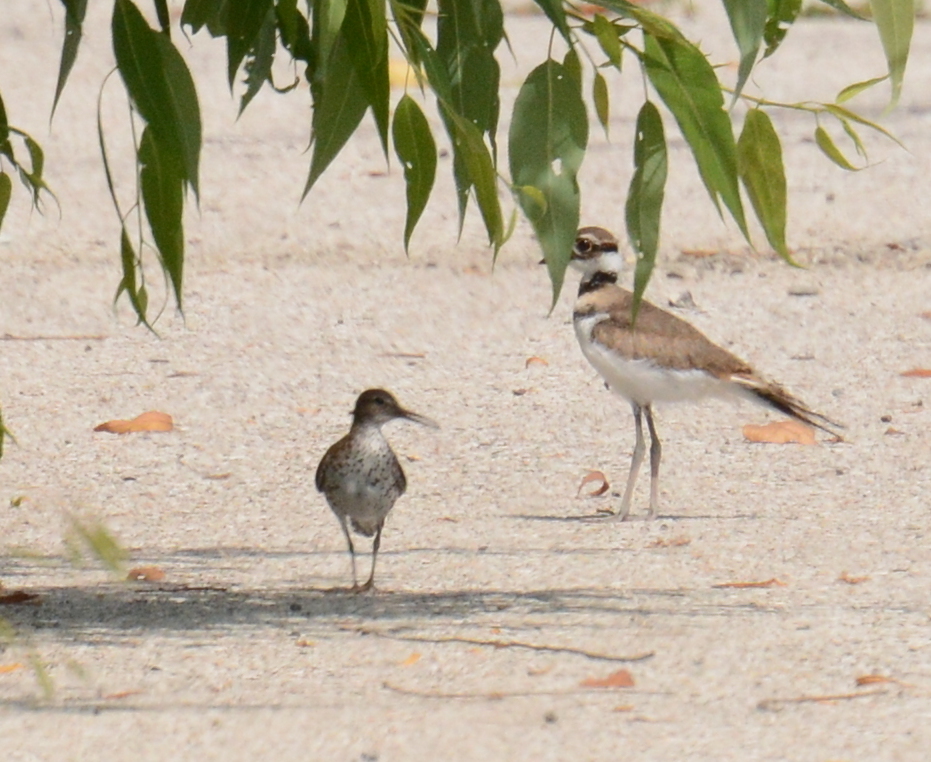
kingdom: Animalia
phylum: Chordata
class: Aves
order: Charadriiformes
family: Scolopacidae
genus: Actitis
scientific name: Actitis macularius
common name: Spotted sandpiper
